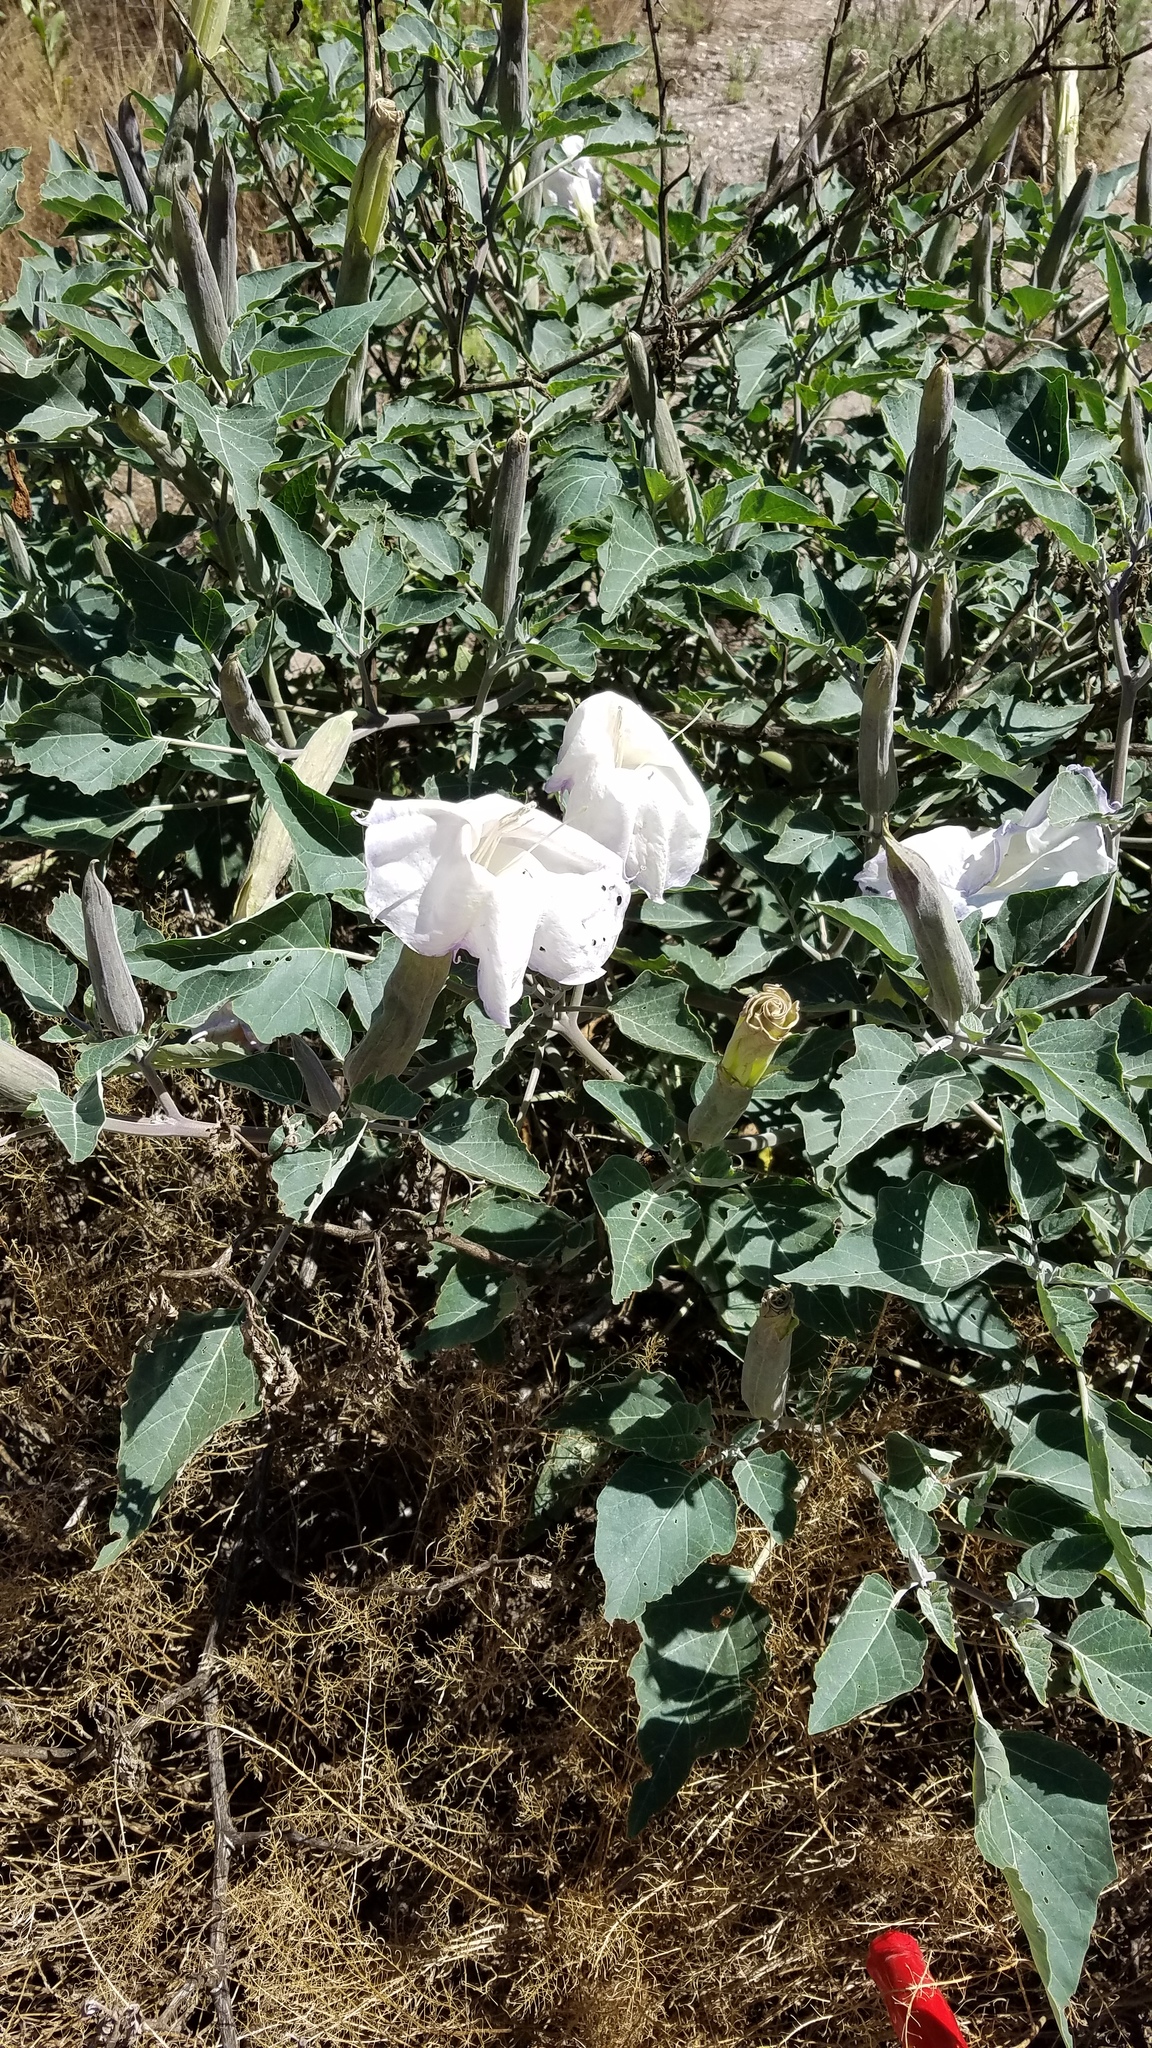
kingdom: Plantae
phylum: Tracheophyta
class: Magnoliopsida
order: Solanales
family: Solanaceae
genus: Datura
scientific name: Datura wrightii
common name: Sacred thorn-apple
